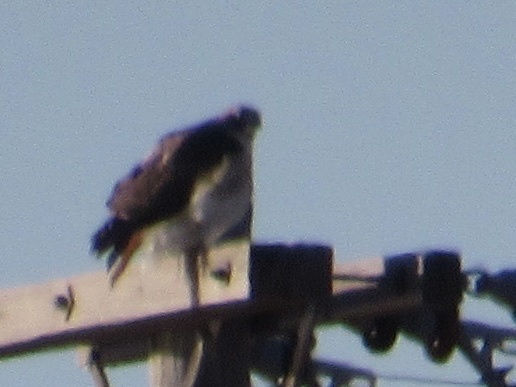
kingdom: Animalia
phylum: Chordata
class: Aves
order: Accipitriformes
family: Accipitridae
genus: Buteo
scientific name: Buteo jamaicensis
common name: Red-tailed hawk
